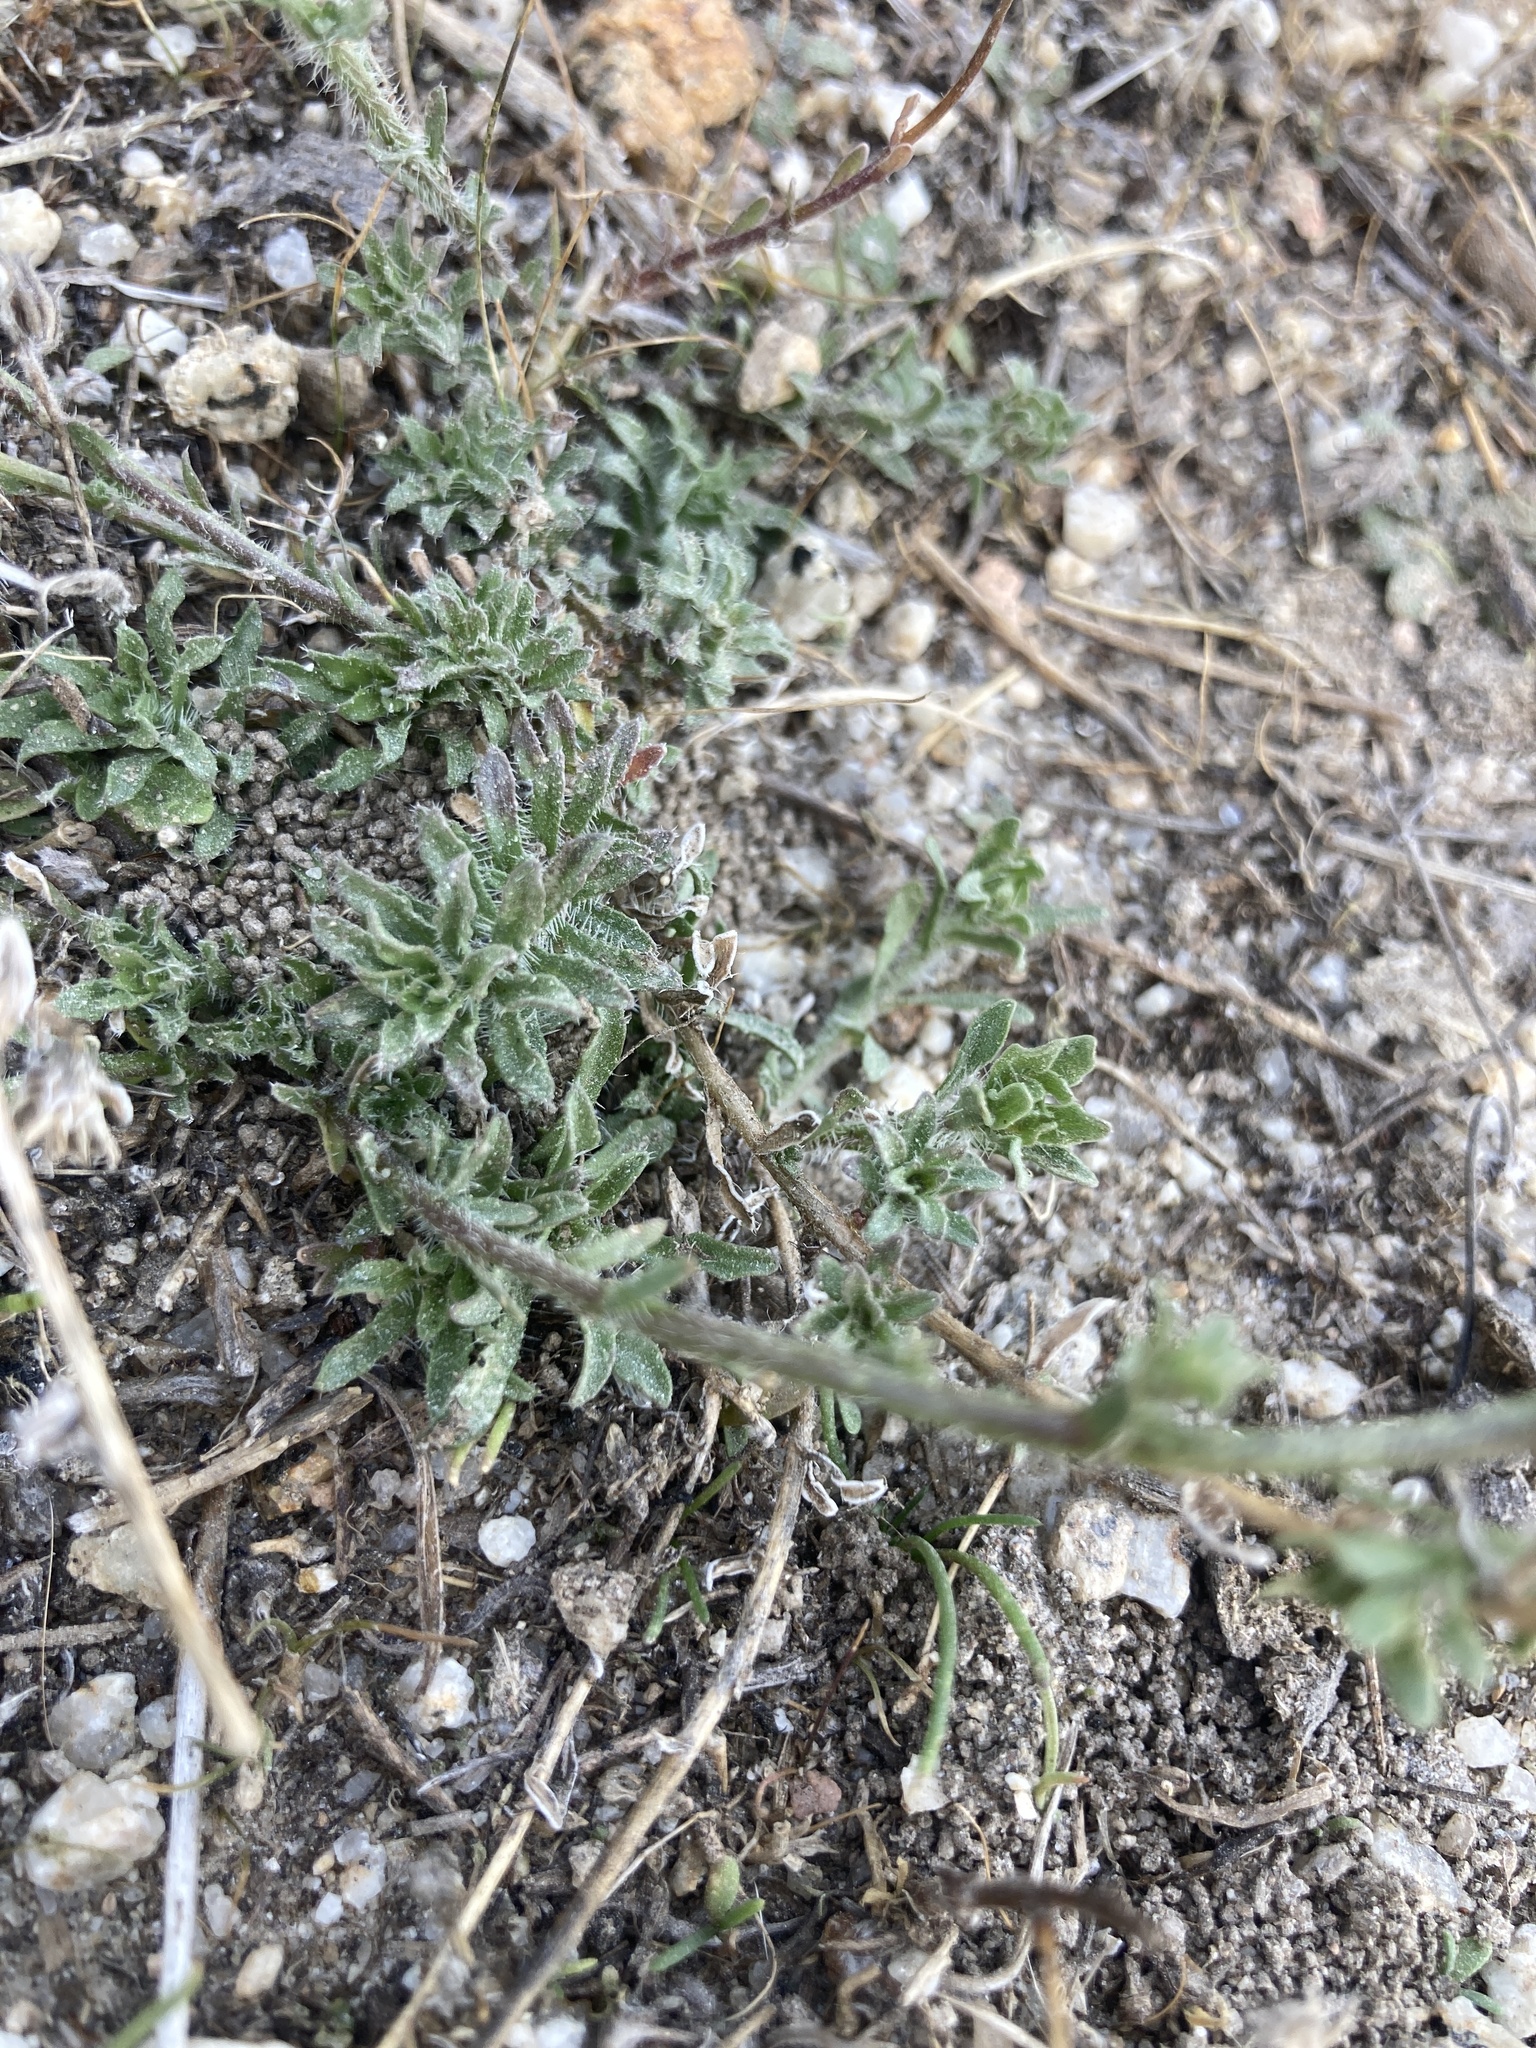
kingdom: Plantae
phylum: Tracheophyta
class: Magnoliopsida
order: Asterales
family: Campanulaceae
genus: Jasione
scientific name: Jasione sessiliflora
